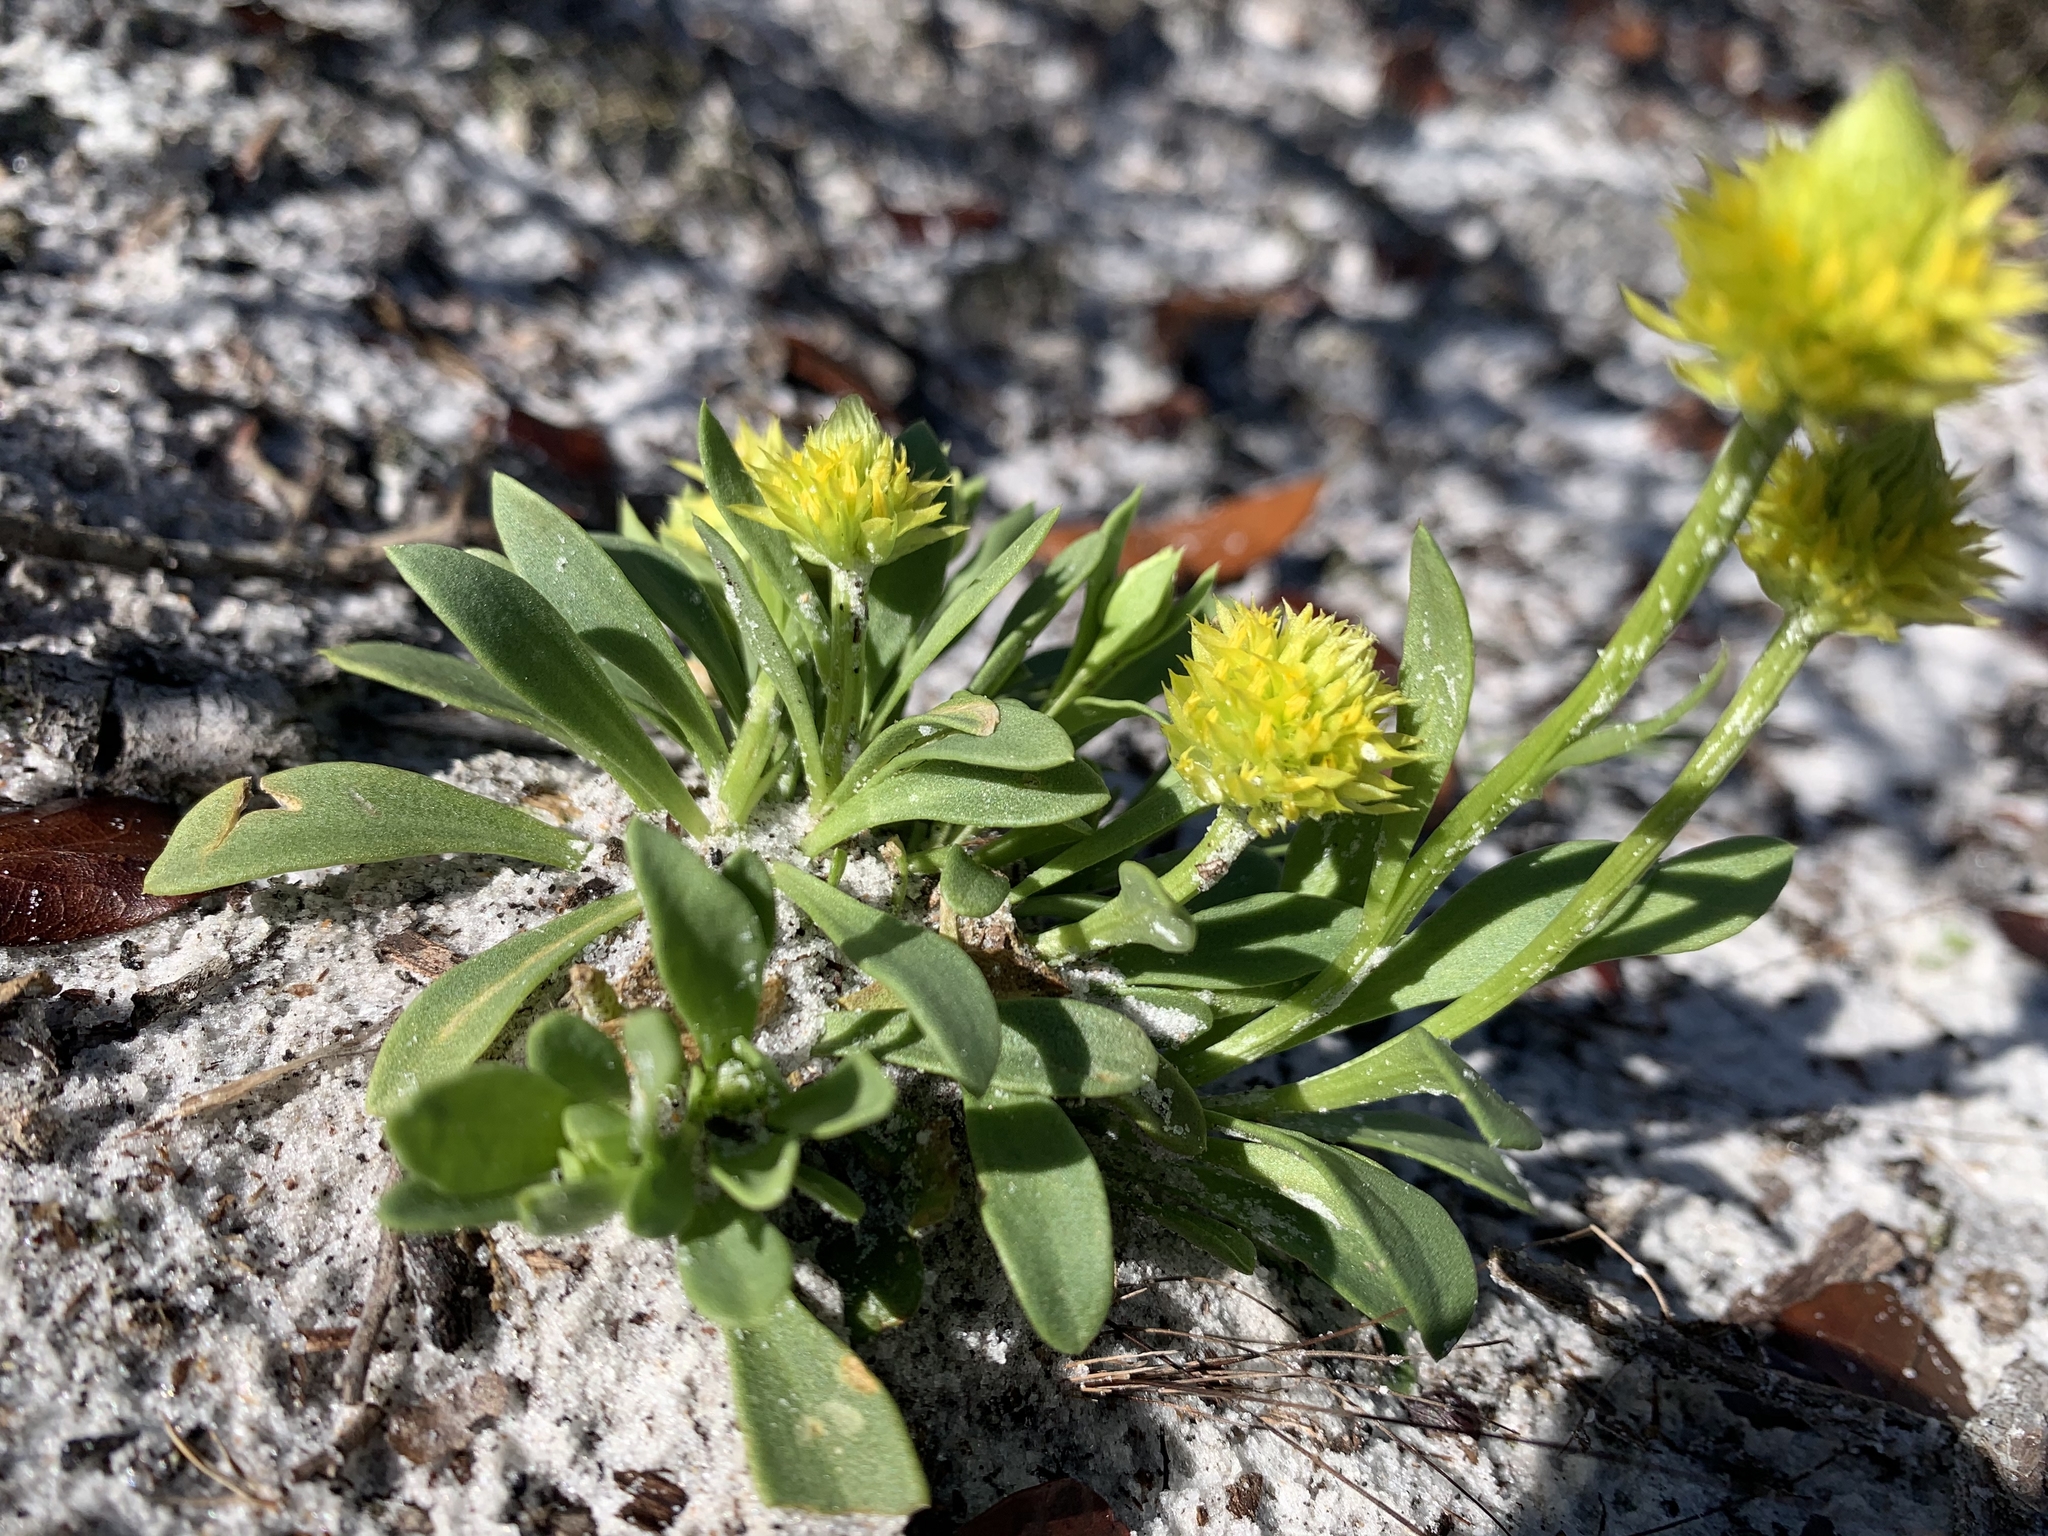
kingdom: Plantae
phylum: Tracheophyta
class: Magnoliopsida
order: Fabales
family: Polygalaceae
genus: Polygala
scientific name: Polygala nana
